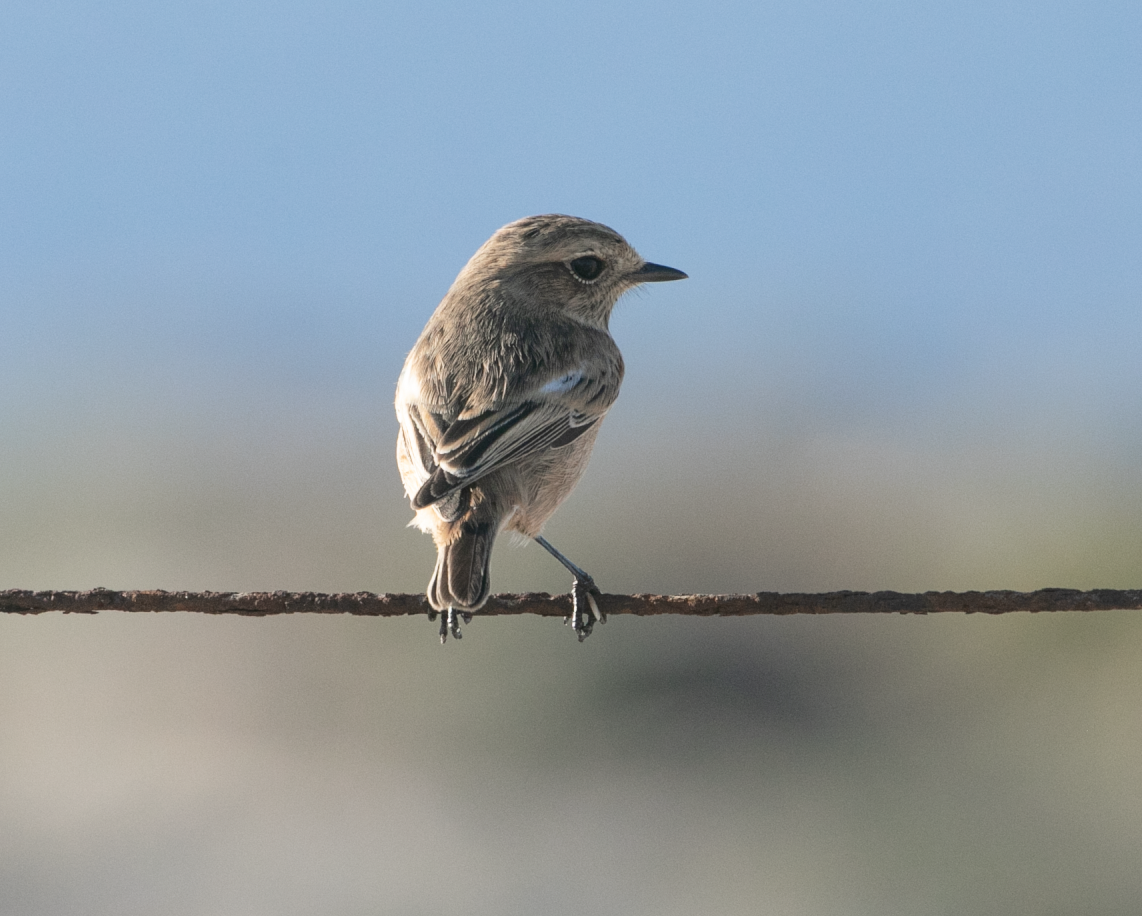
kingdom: Animalia
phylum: Chordata
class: Aves
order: Passeriformes
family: Muscicapidae
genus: Saxicola
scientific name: Saxicola rubicola
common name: European stonechat
